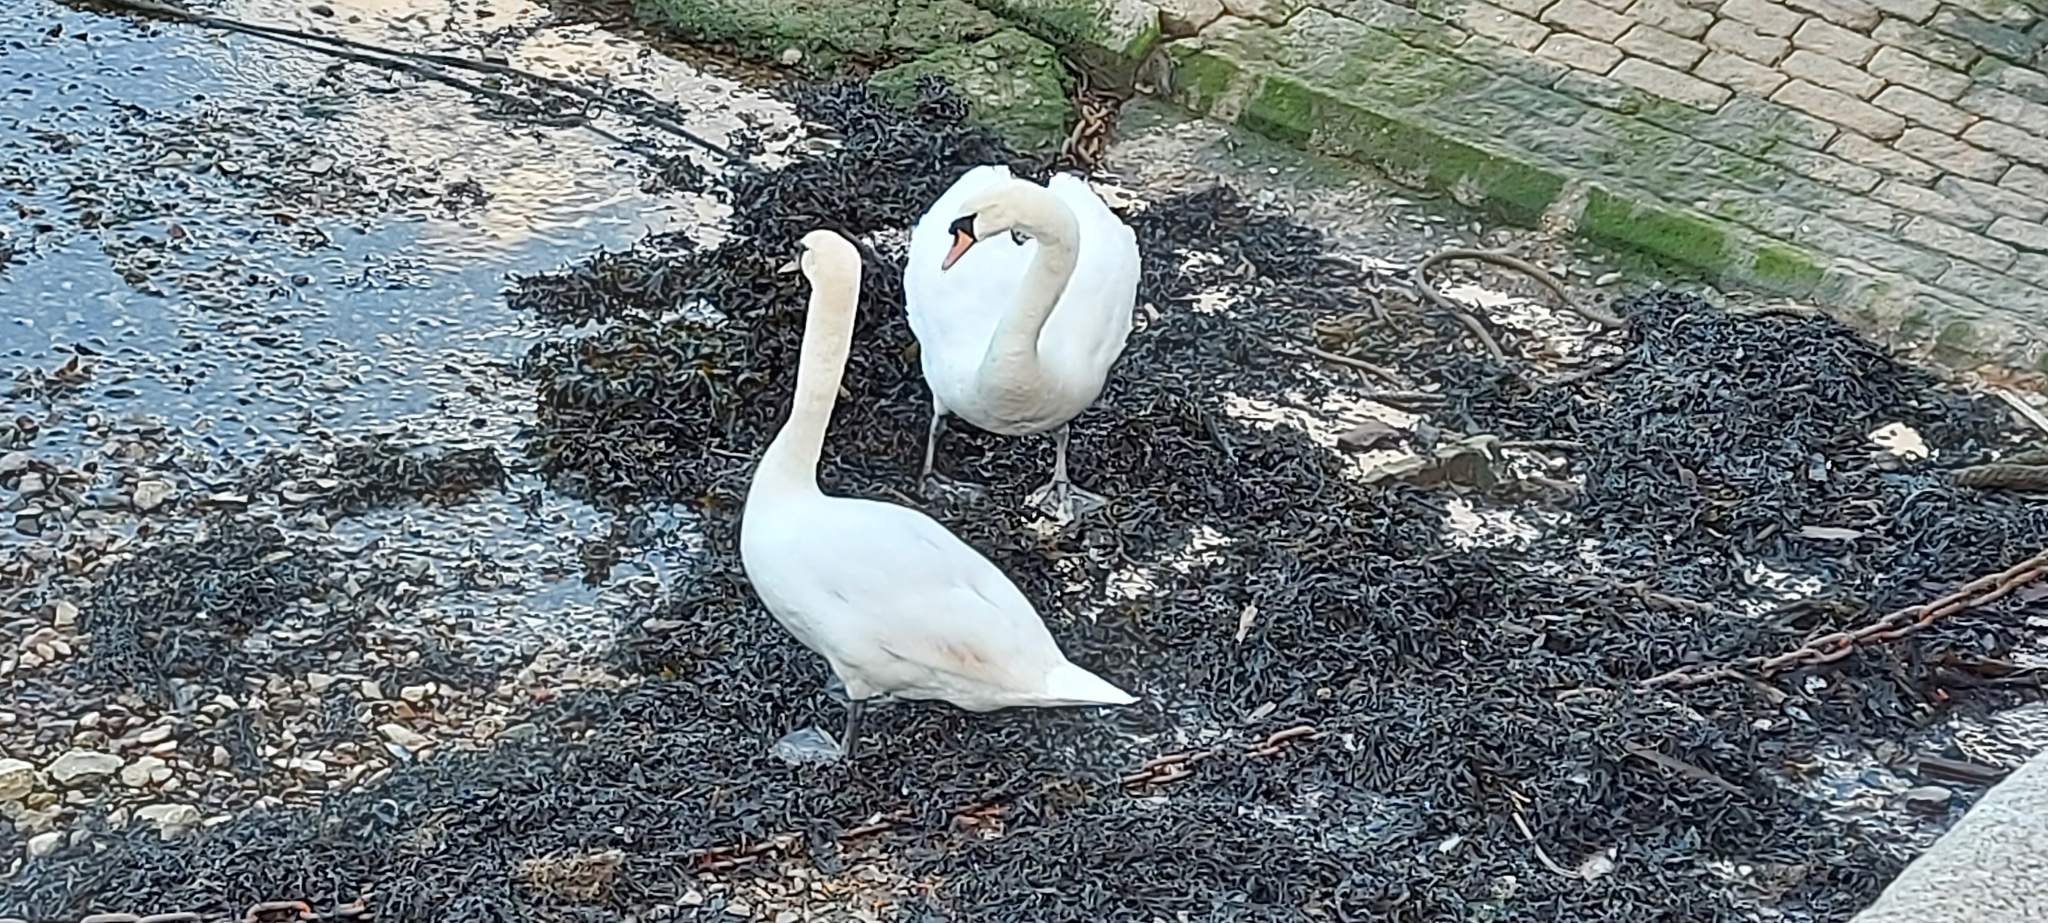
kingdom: Animalia
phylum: Chordata
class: Aves
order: Anseriformes
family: Anatidae
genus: Cygnus
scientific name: Cygnus olor
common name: Mute swan
